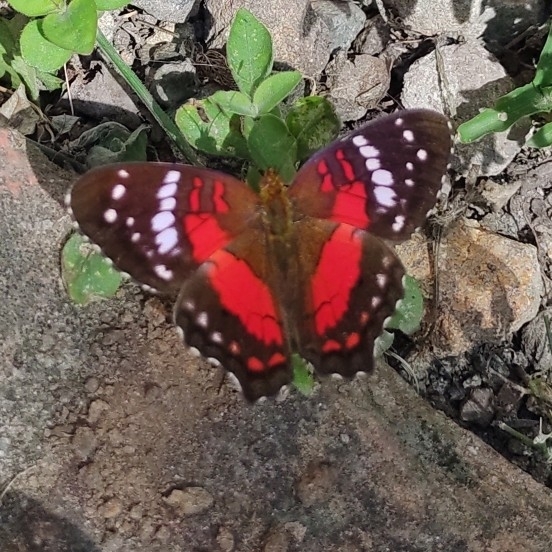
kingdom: Animalia
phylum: Arthropoda
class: Insecta
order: Lepidoptera
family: Nymphalidae
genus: Anartia
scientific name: Anartia amathea
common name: Red peacock
